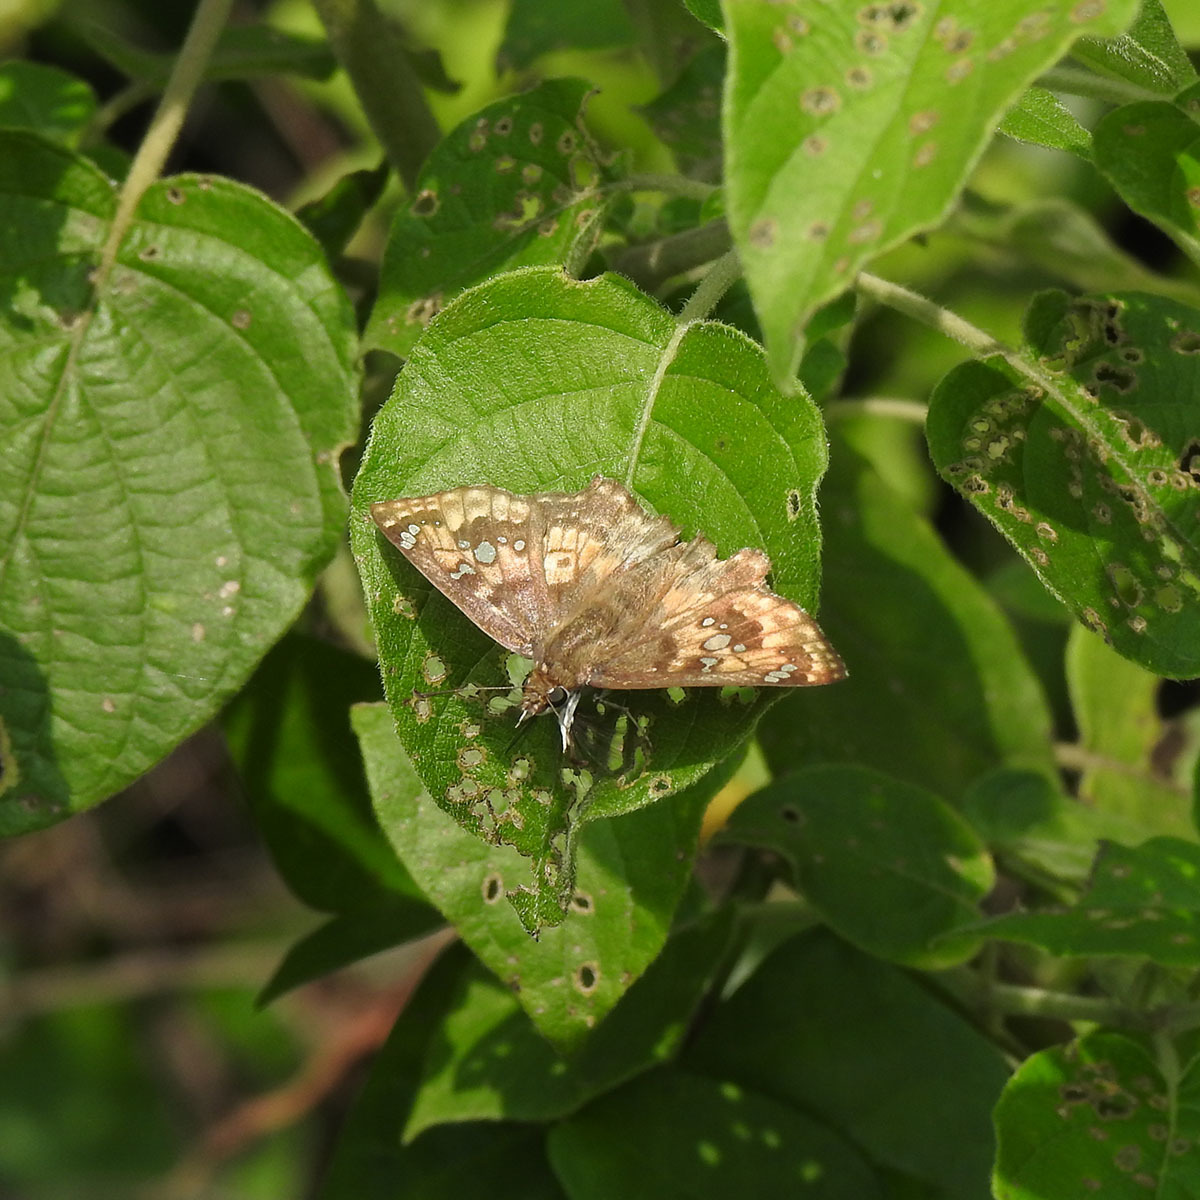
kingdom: Animalia
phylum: Arthropoda
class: Insecta
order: Lepidoptera
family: Hesperiidae
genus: Caprona
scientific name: Caprona ransonnettii
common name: Golden angle
